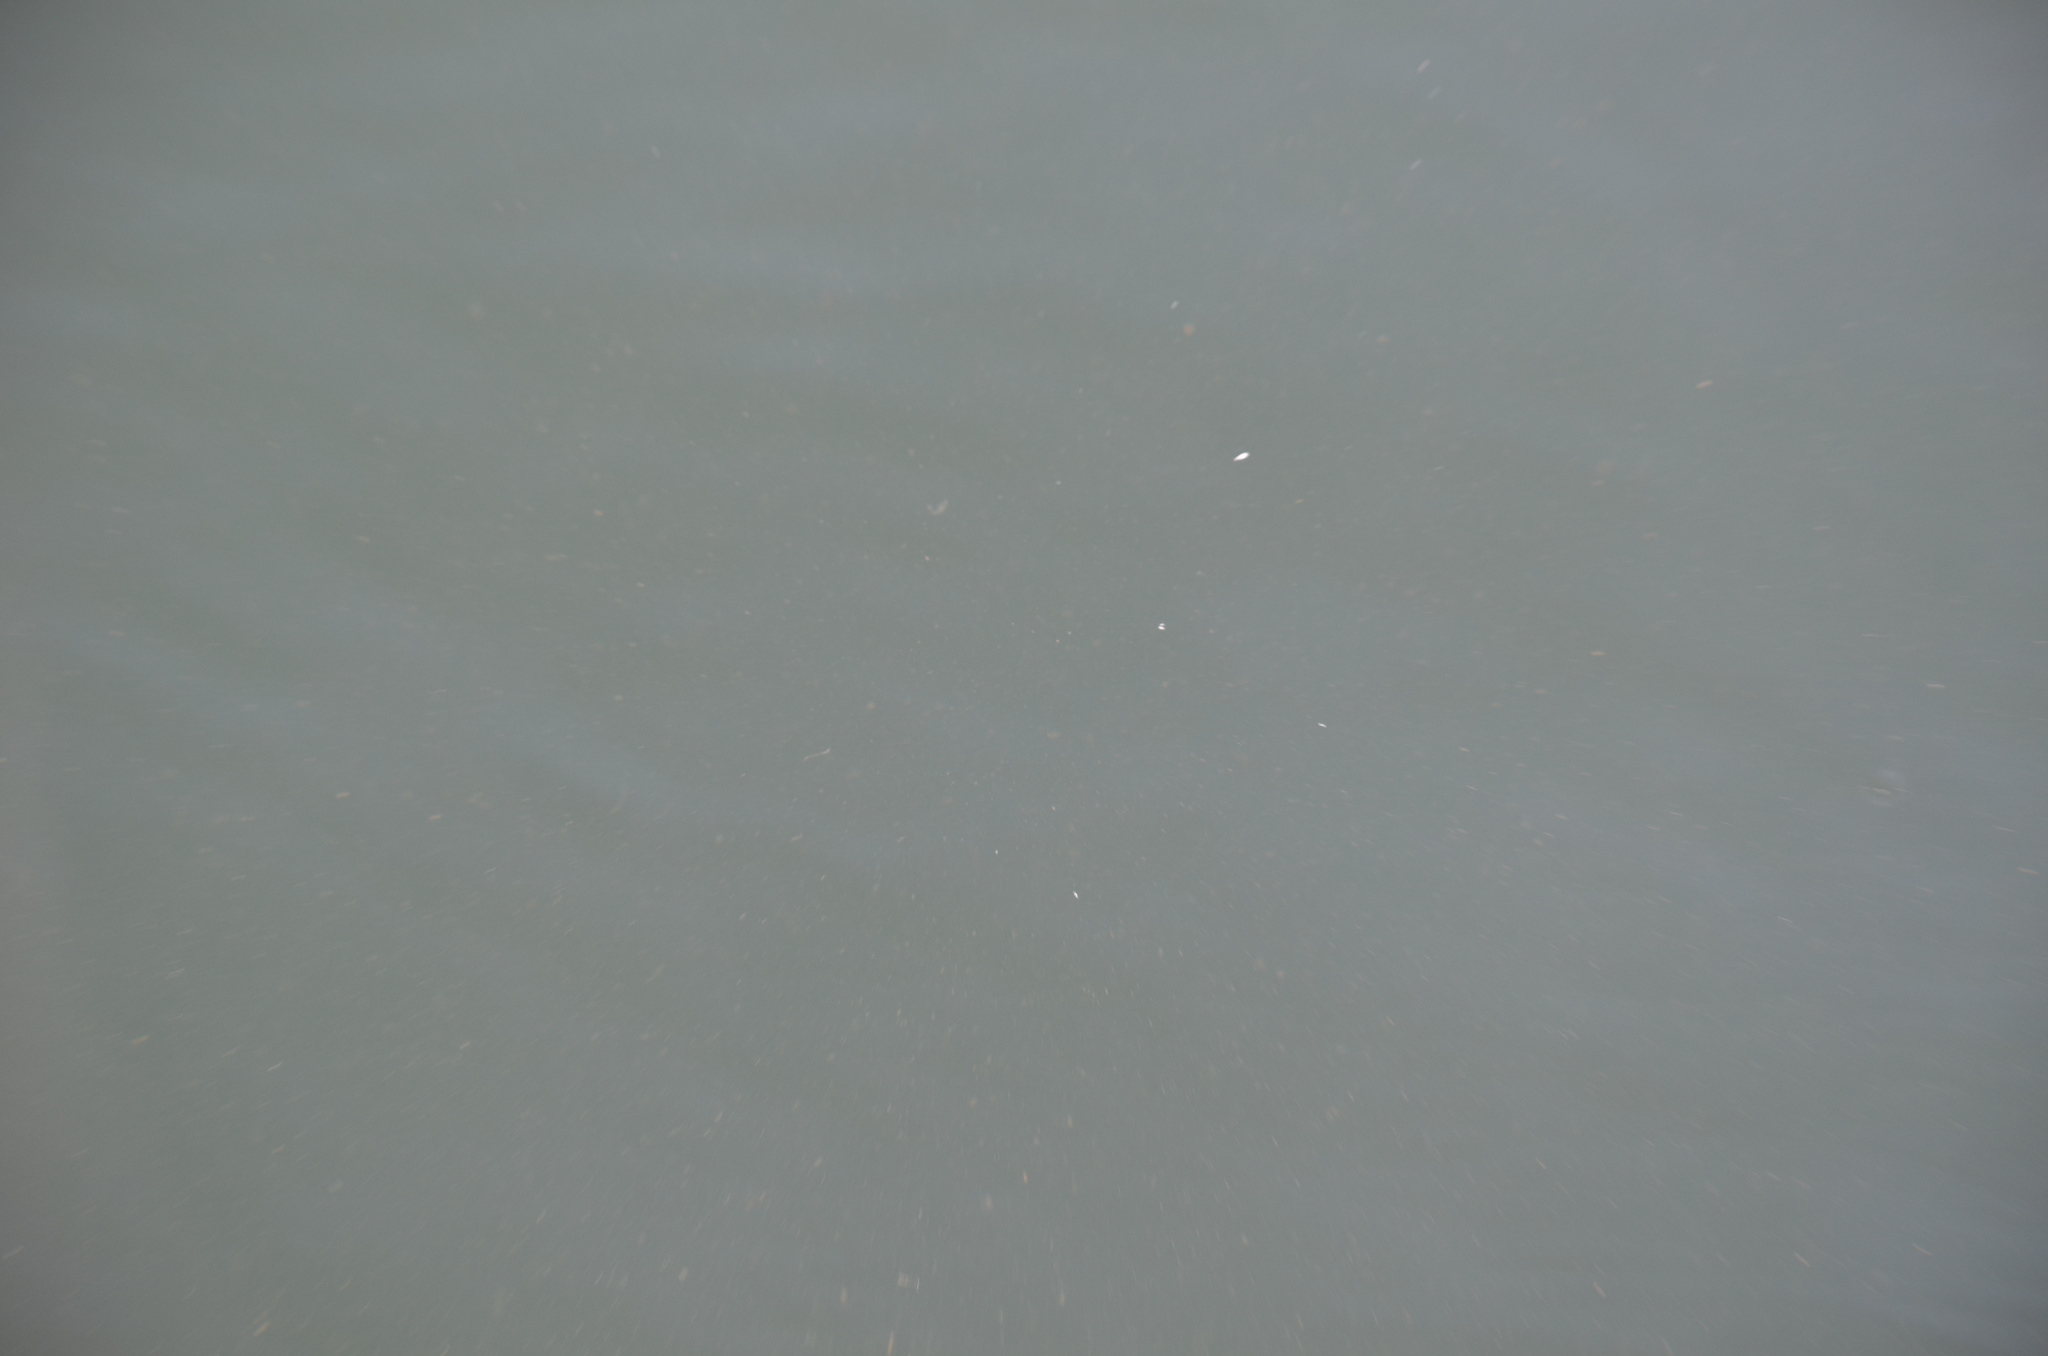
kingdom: Animalia
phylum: Chordata
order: Gasterosteiformes
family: Gasterosteidae
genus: Gasterosteus
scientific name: Gasterosteus aculeatus
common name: Three-spined stickleback
